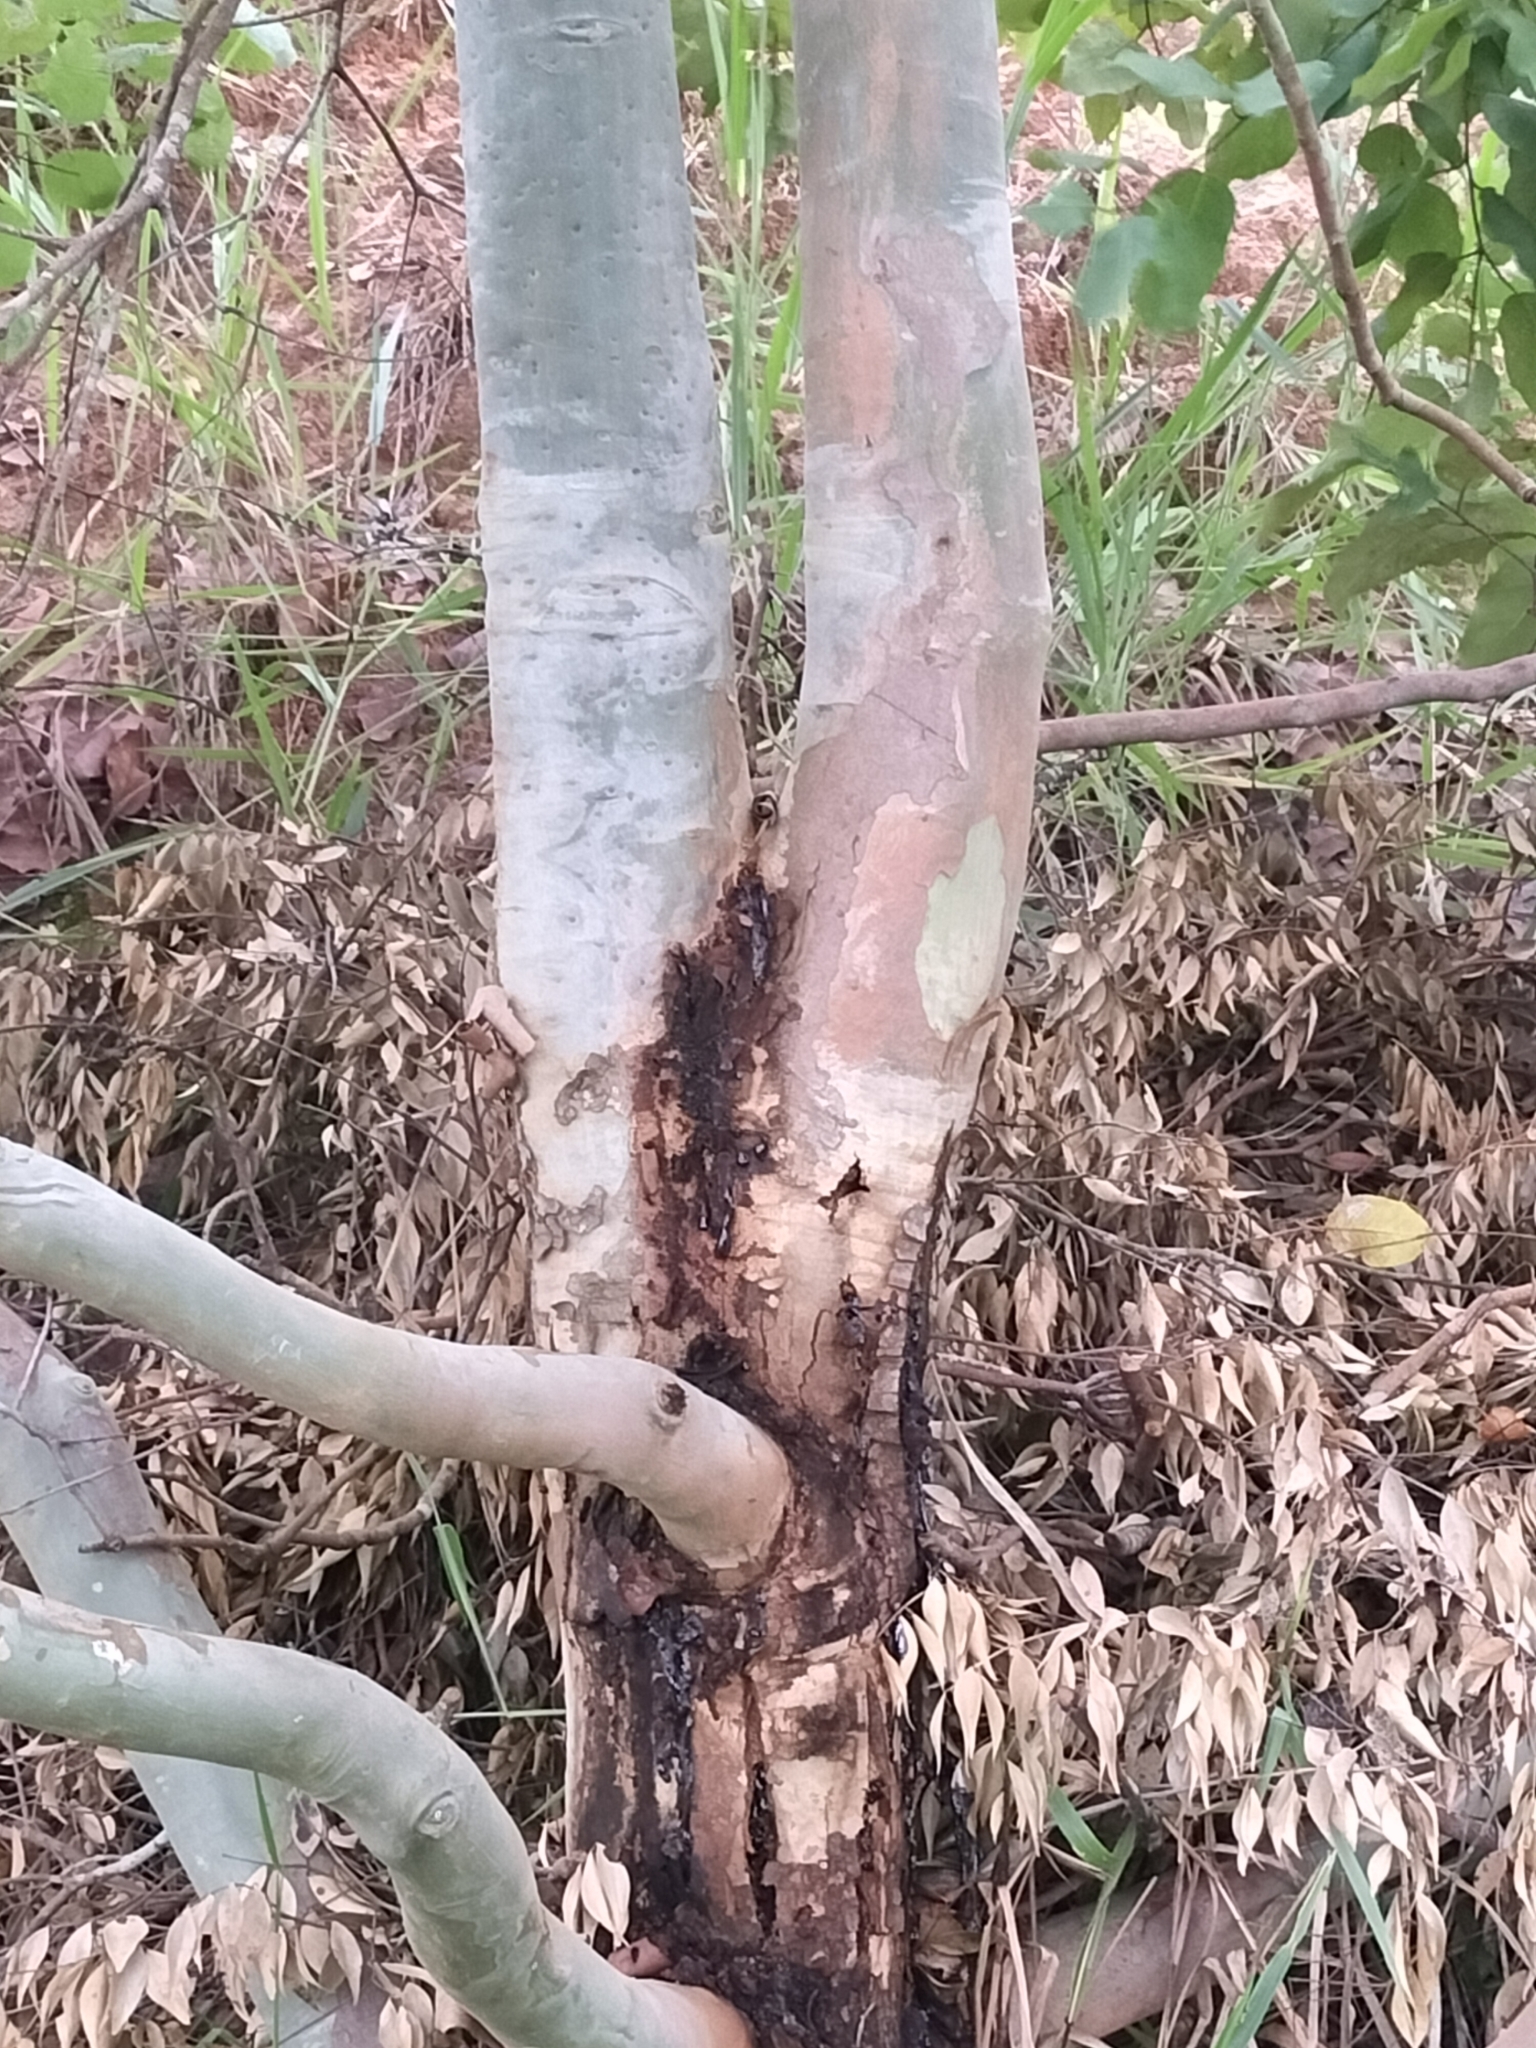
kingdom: Plantae
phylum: Tracheophyta
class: Magnoliopsida
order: Myrtales
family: Myrtaceae
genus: Corymbia
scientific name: Corymbia torelliana
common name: Cadaghi
